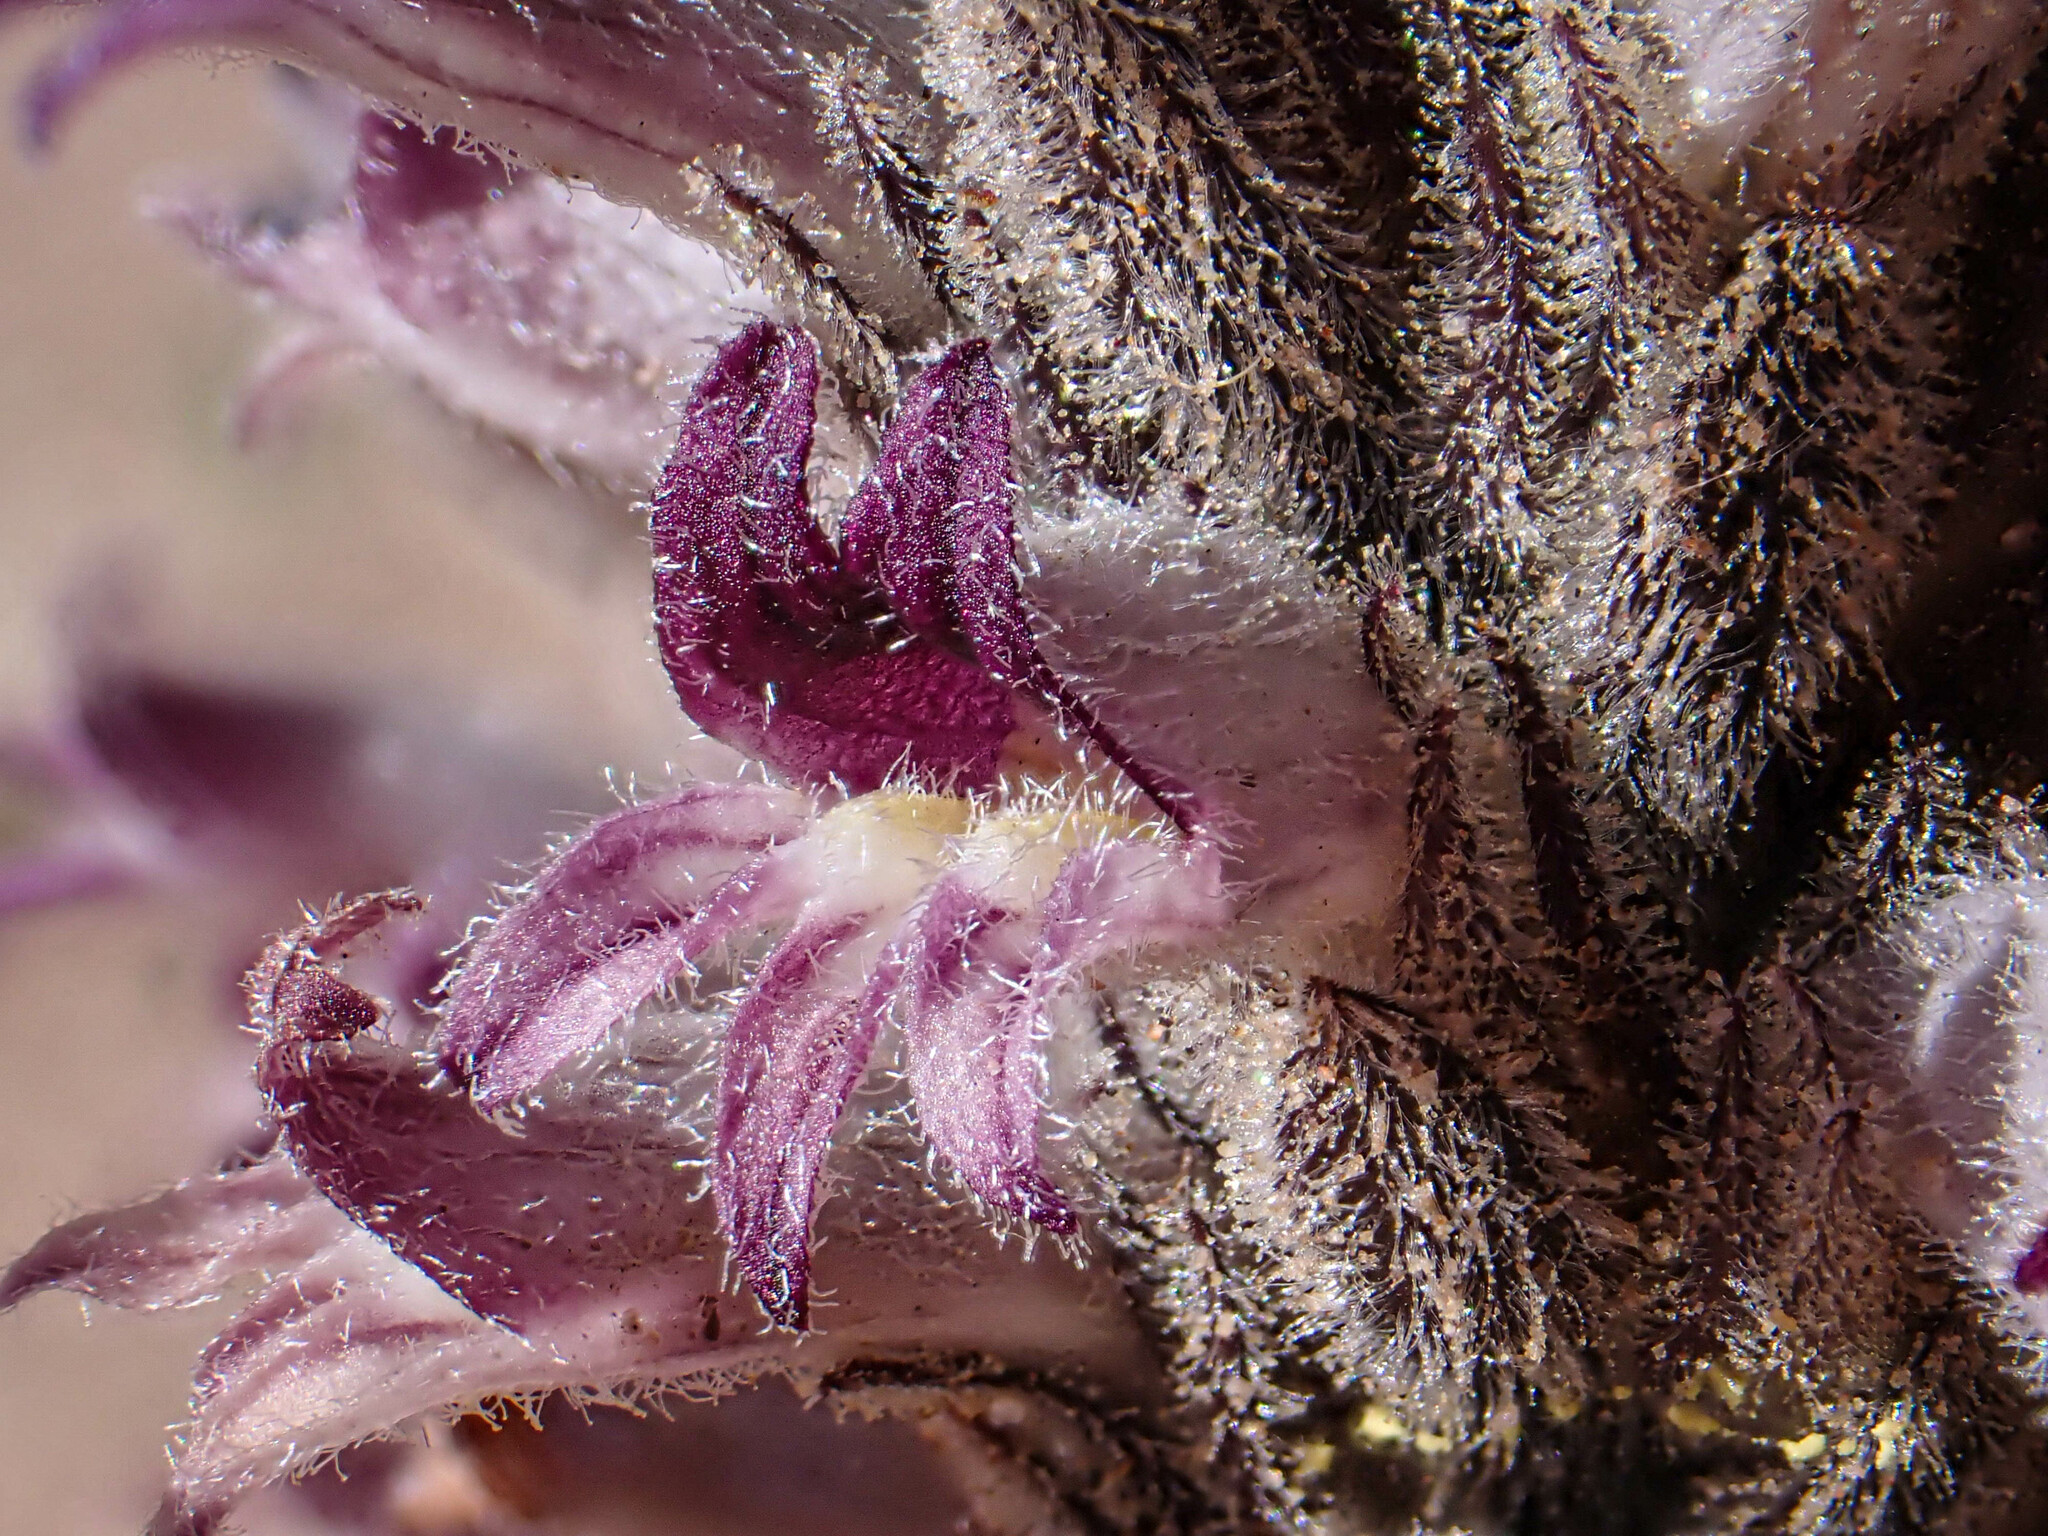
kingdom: Plantae
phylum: Tracheophyta
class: Magnoliopsida
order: Lamiales
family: Orobanchaceae
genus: Aphyllon
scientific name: Aphyllon cooperi
